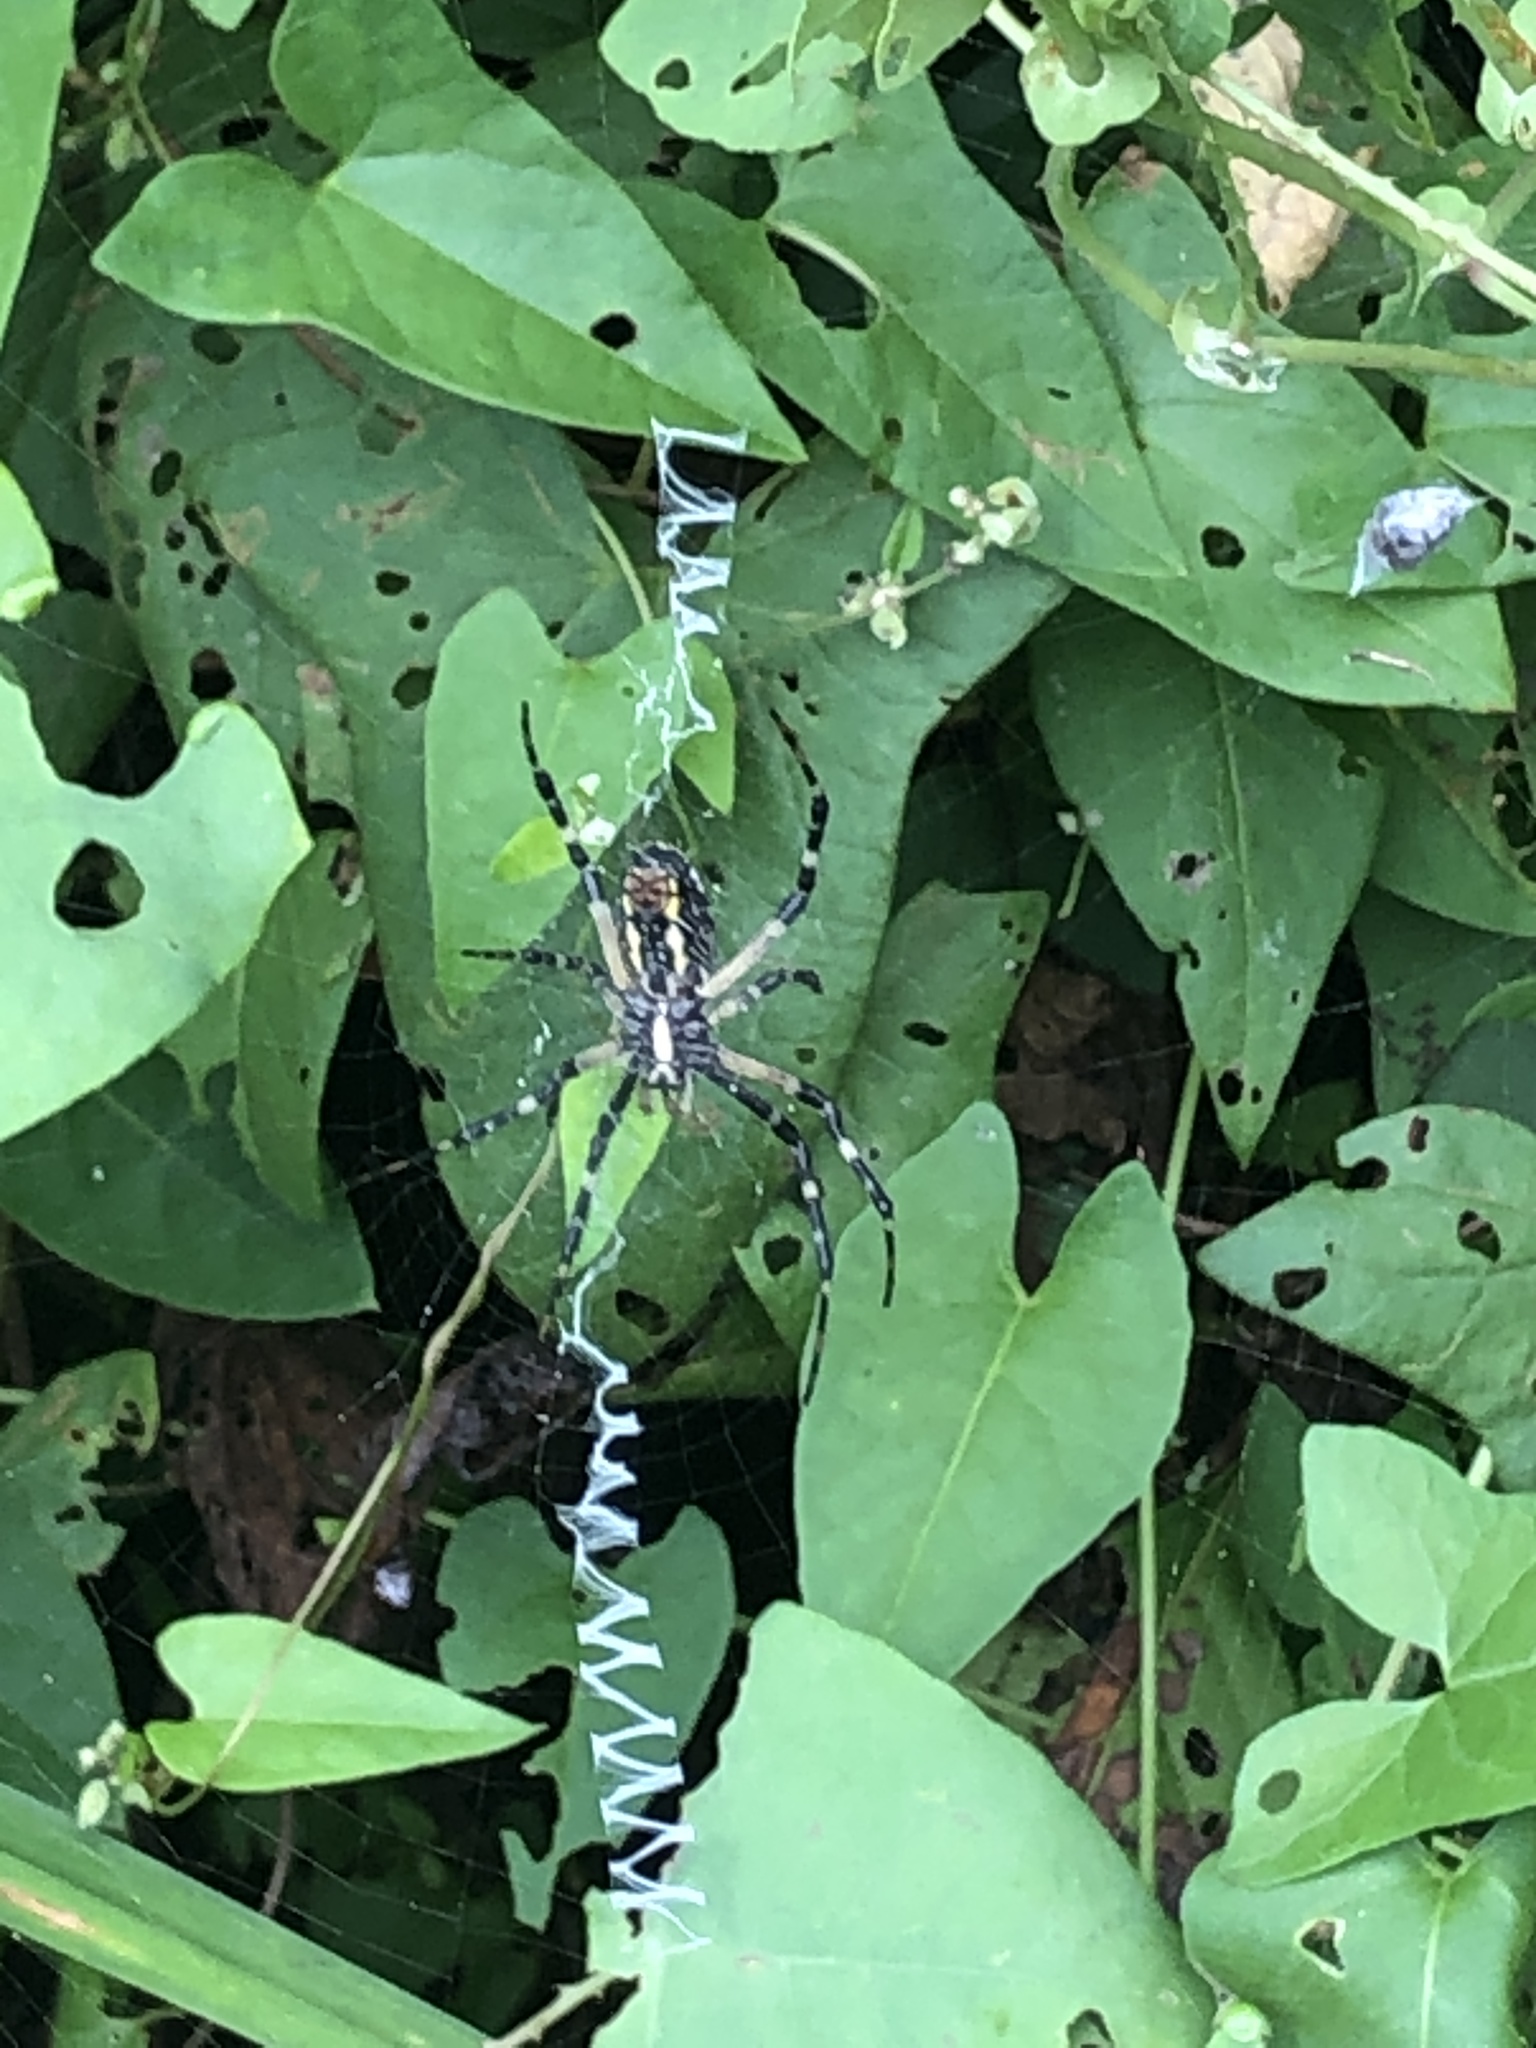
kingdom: Animalia
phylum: Arthropoda
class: Arachnida
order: Araneae
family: Araneidae
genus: Argiope
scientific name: Argiope aurantia
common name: Orb weavers
